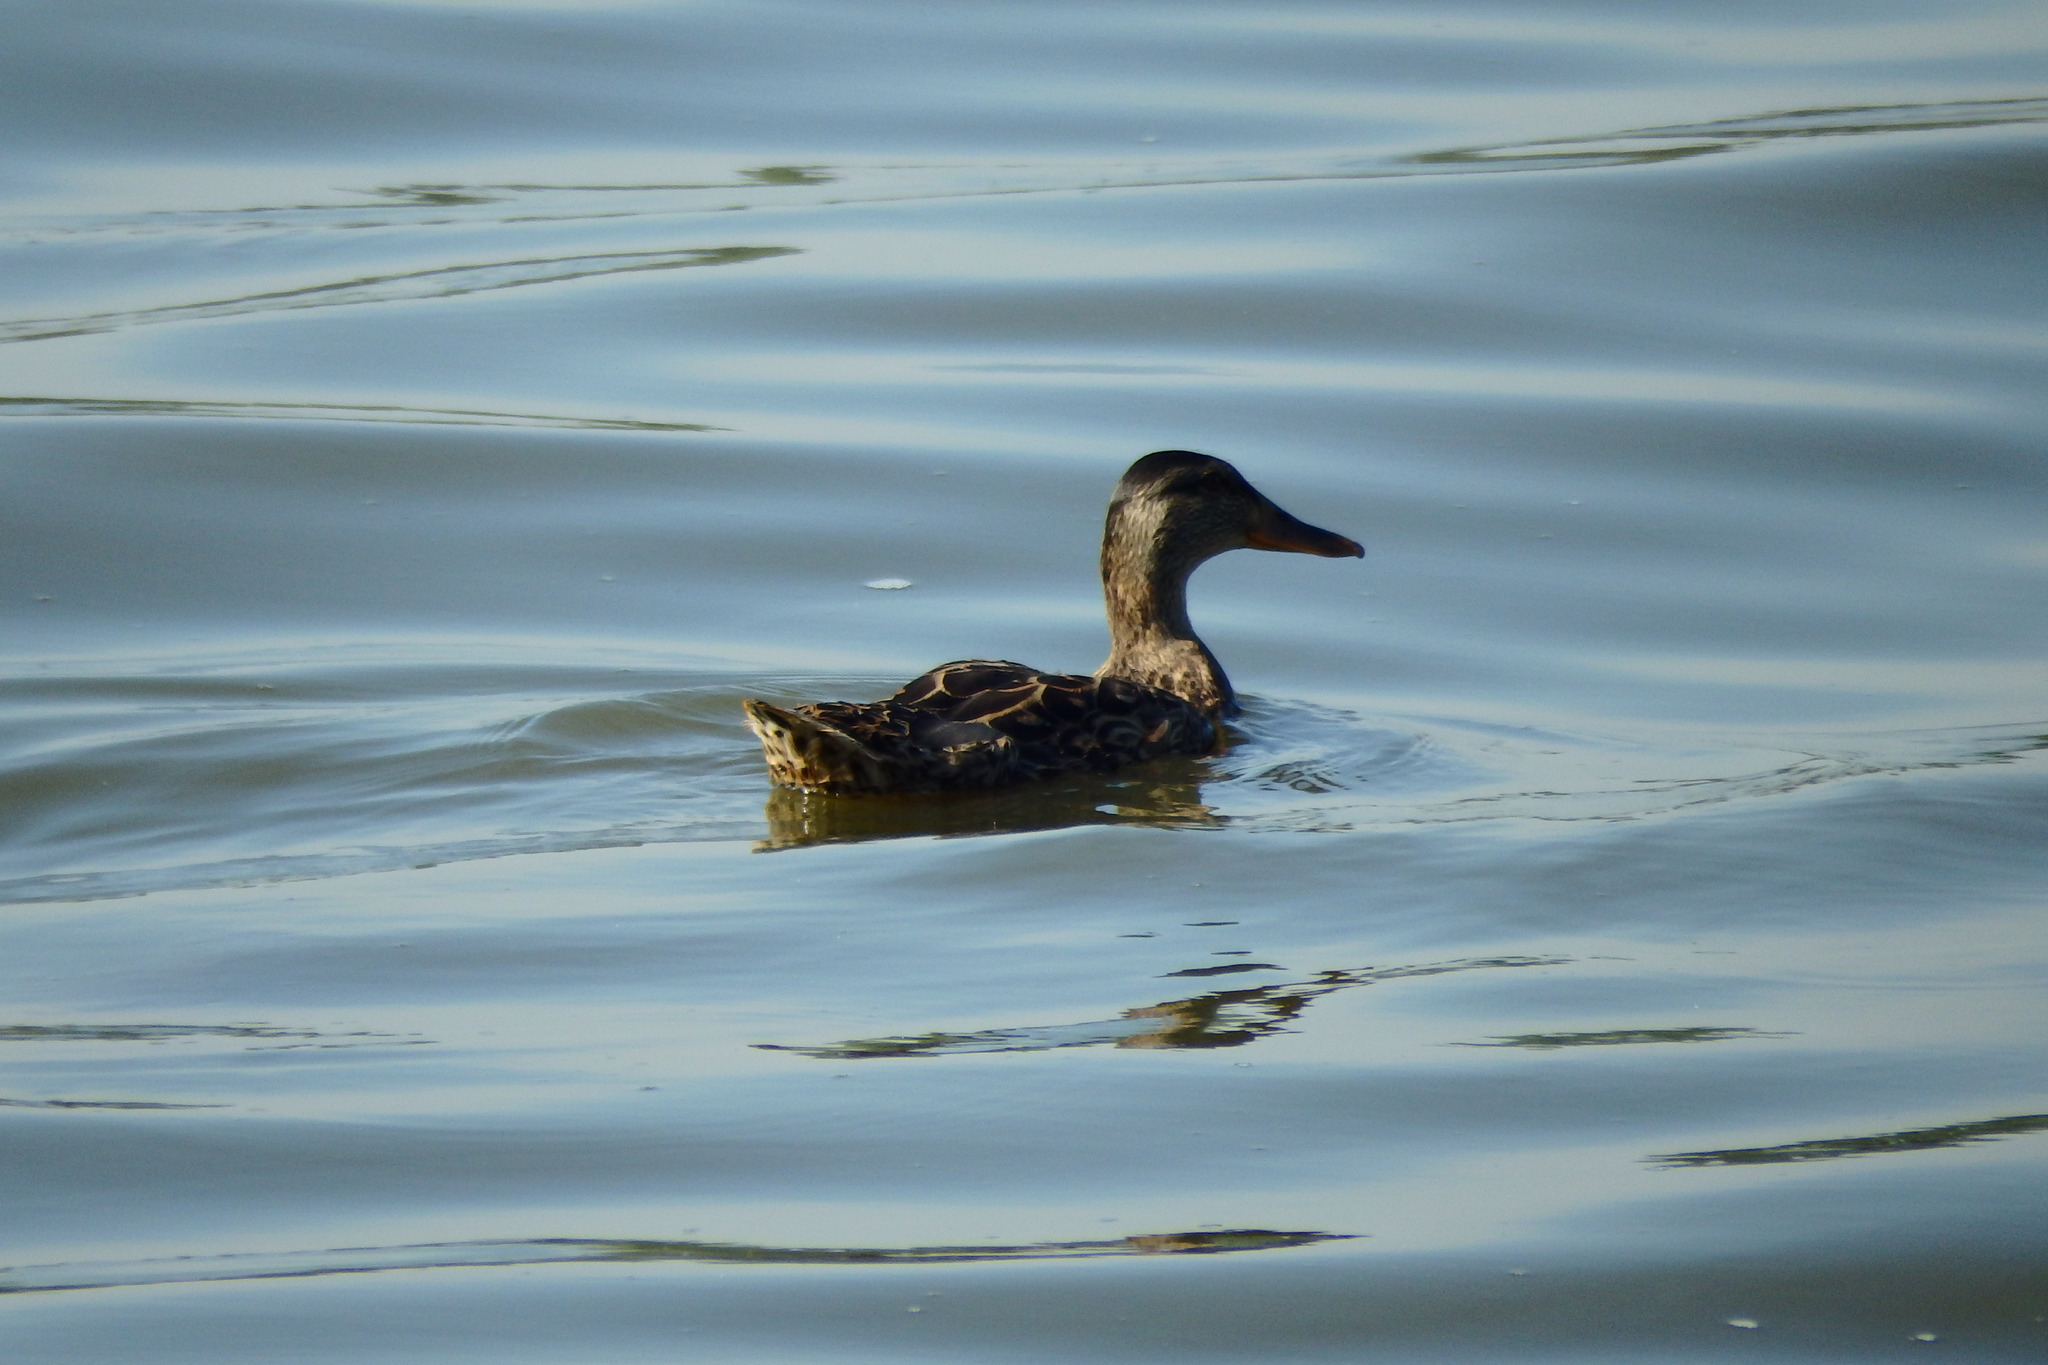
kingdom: Animalia
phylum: Chordata
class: Aves
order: Anseriformes
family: Anatidae
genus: Anas
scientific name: Anas platyrhynchos
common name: Mallard
